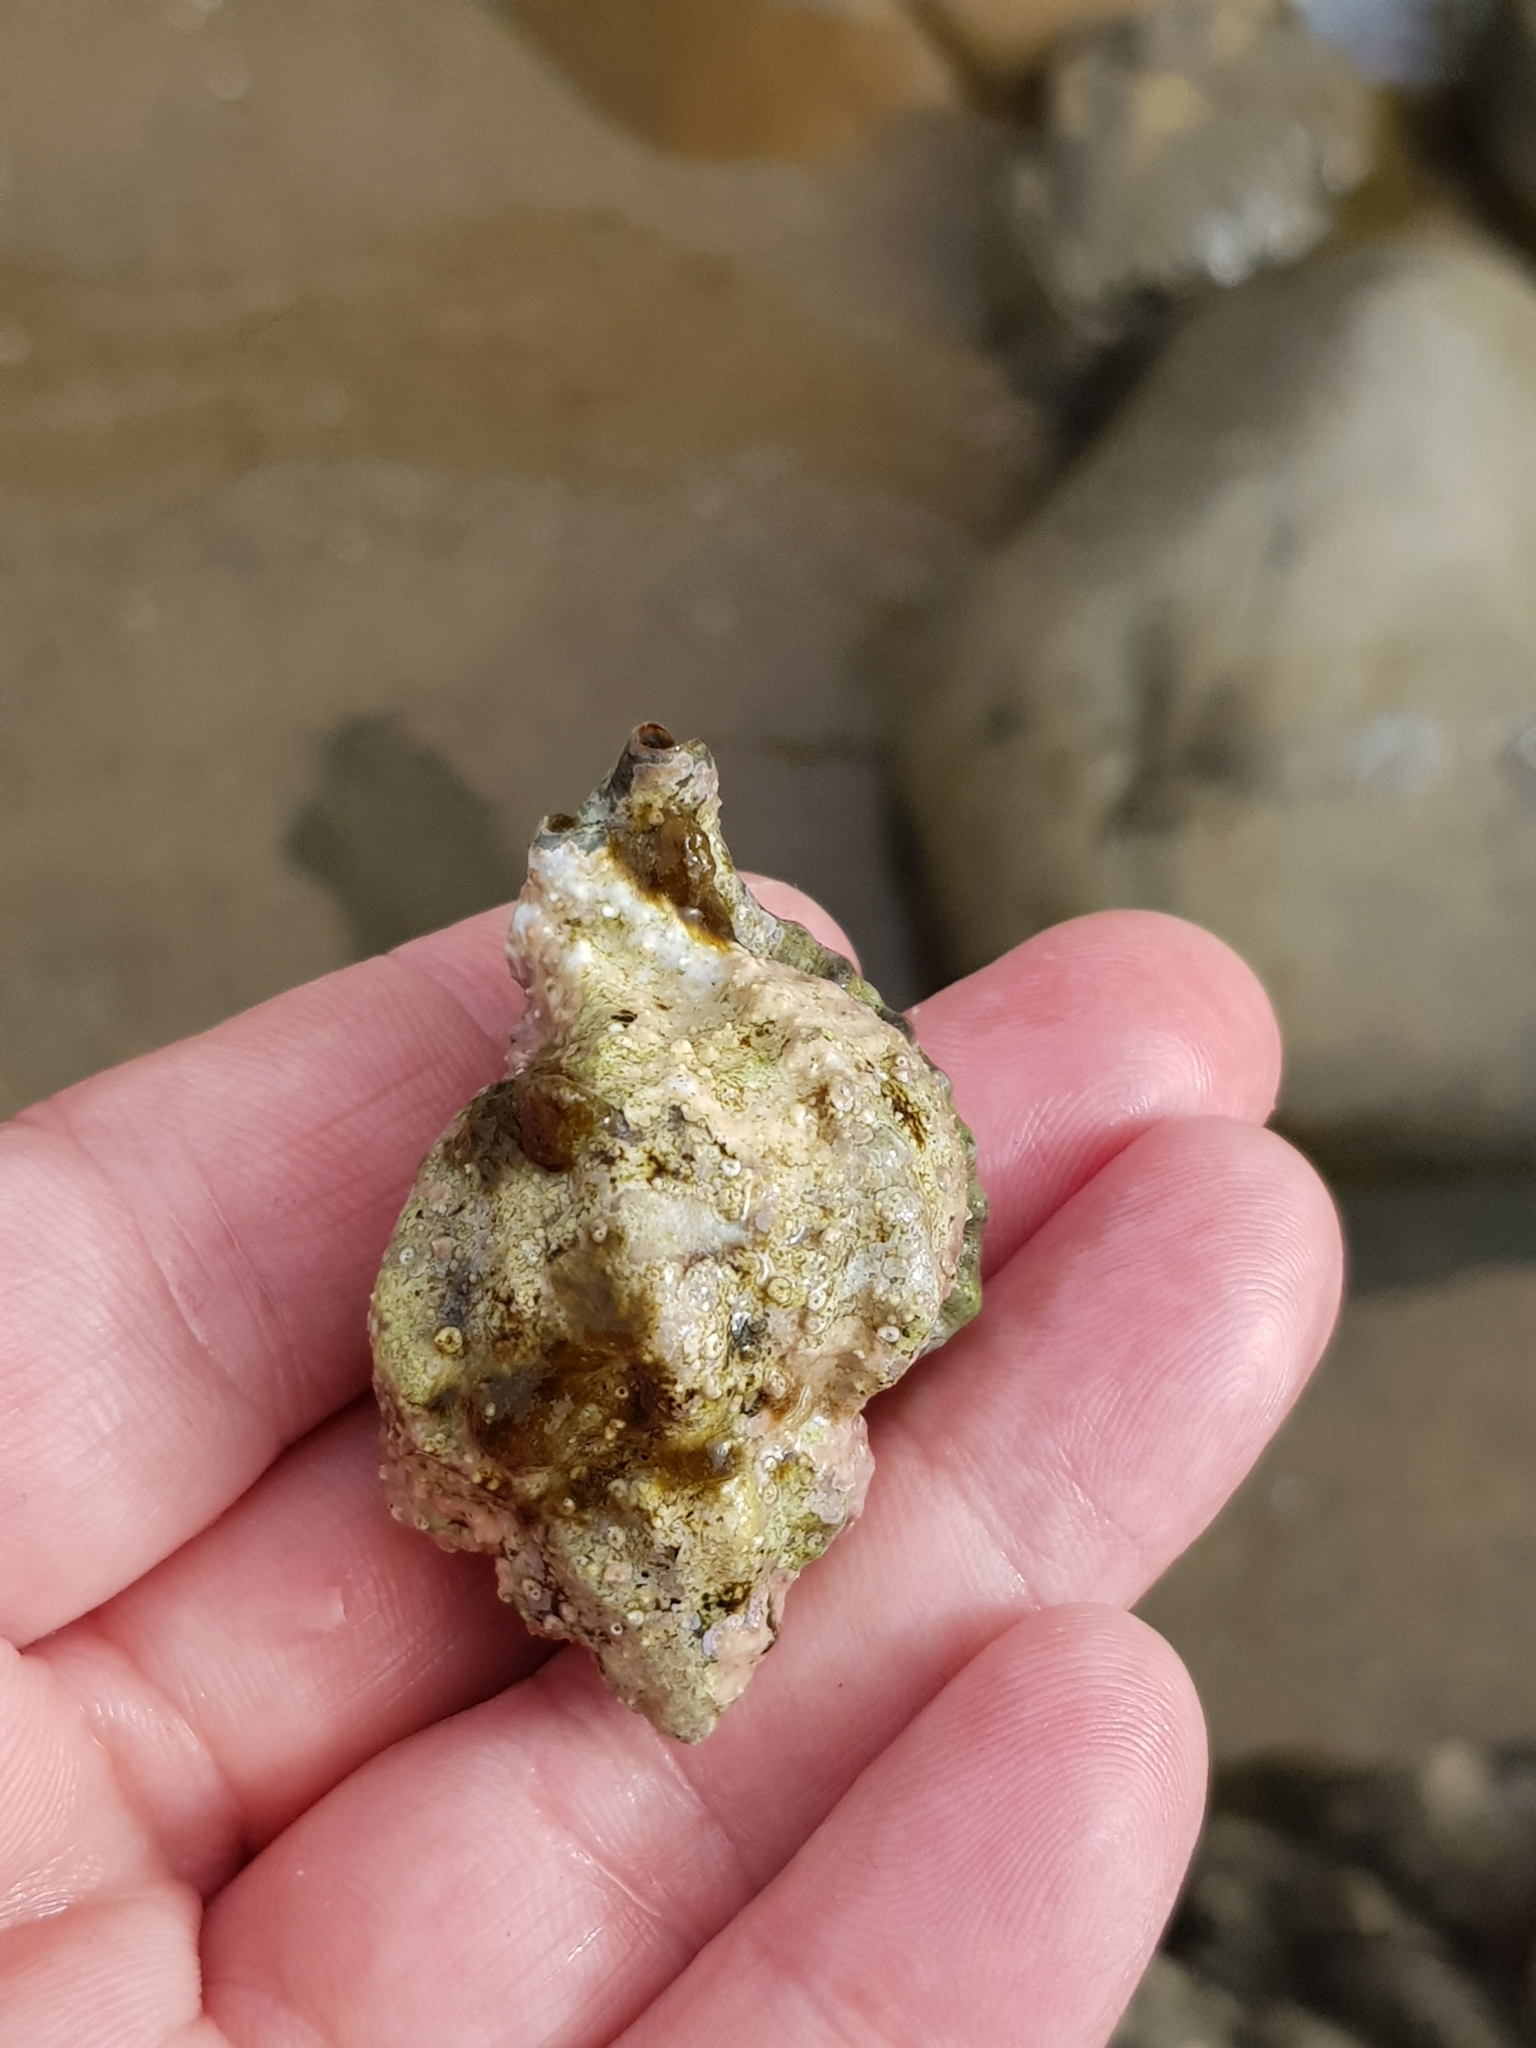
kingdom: Animalia
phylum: Mollusca
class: Gastropoda
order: Neogastropoda
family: Muricidae
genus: Hexaplex
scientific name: Hexaplex trunculus
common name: Banded dye-murex
